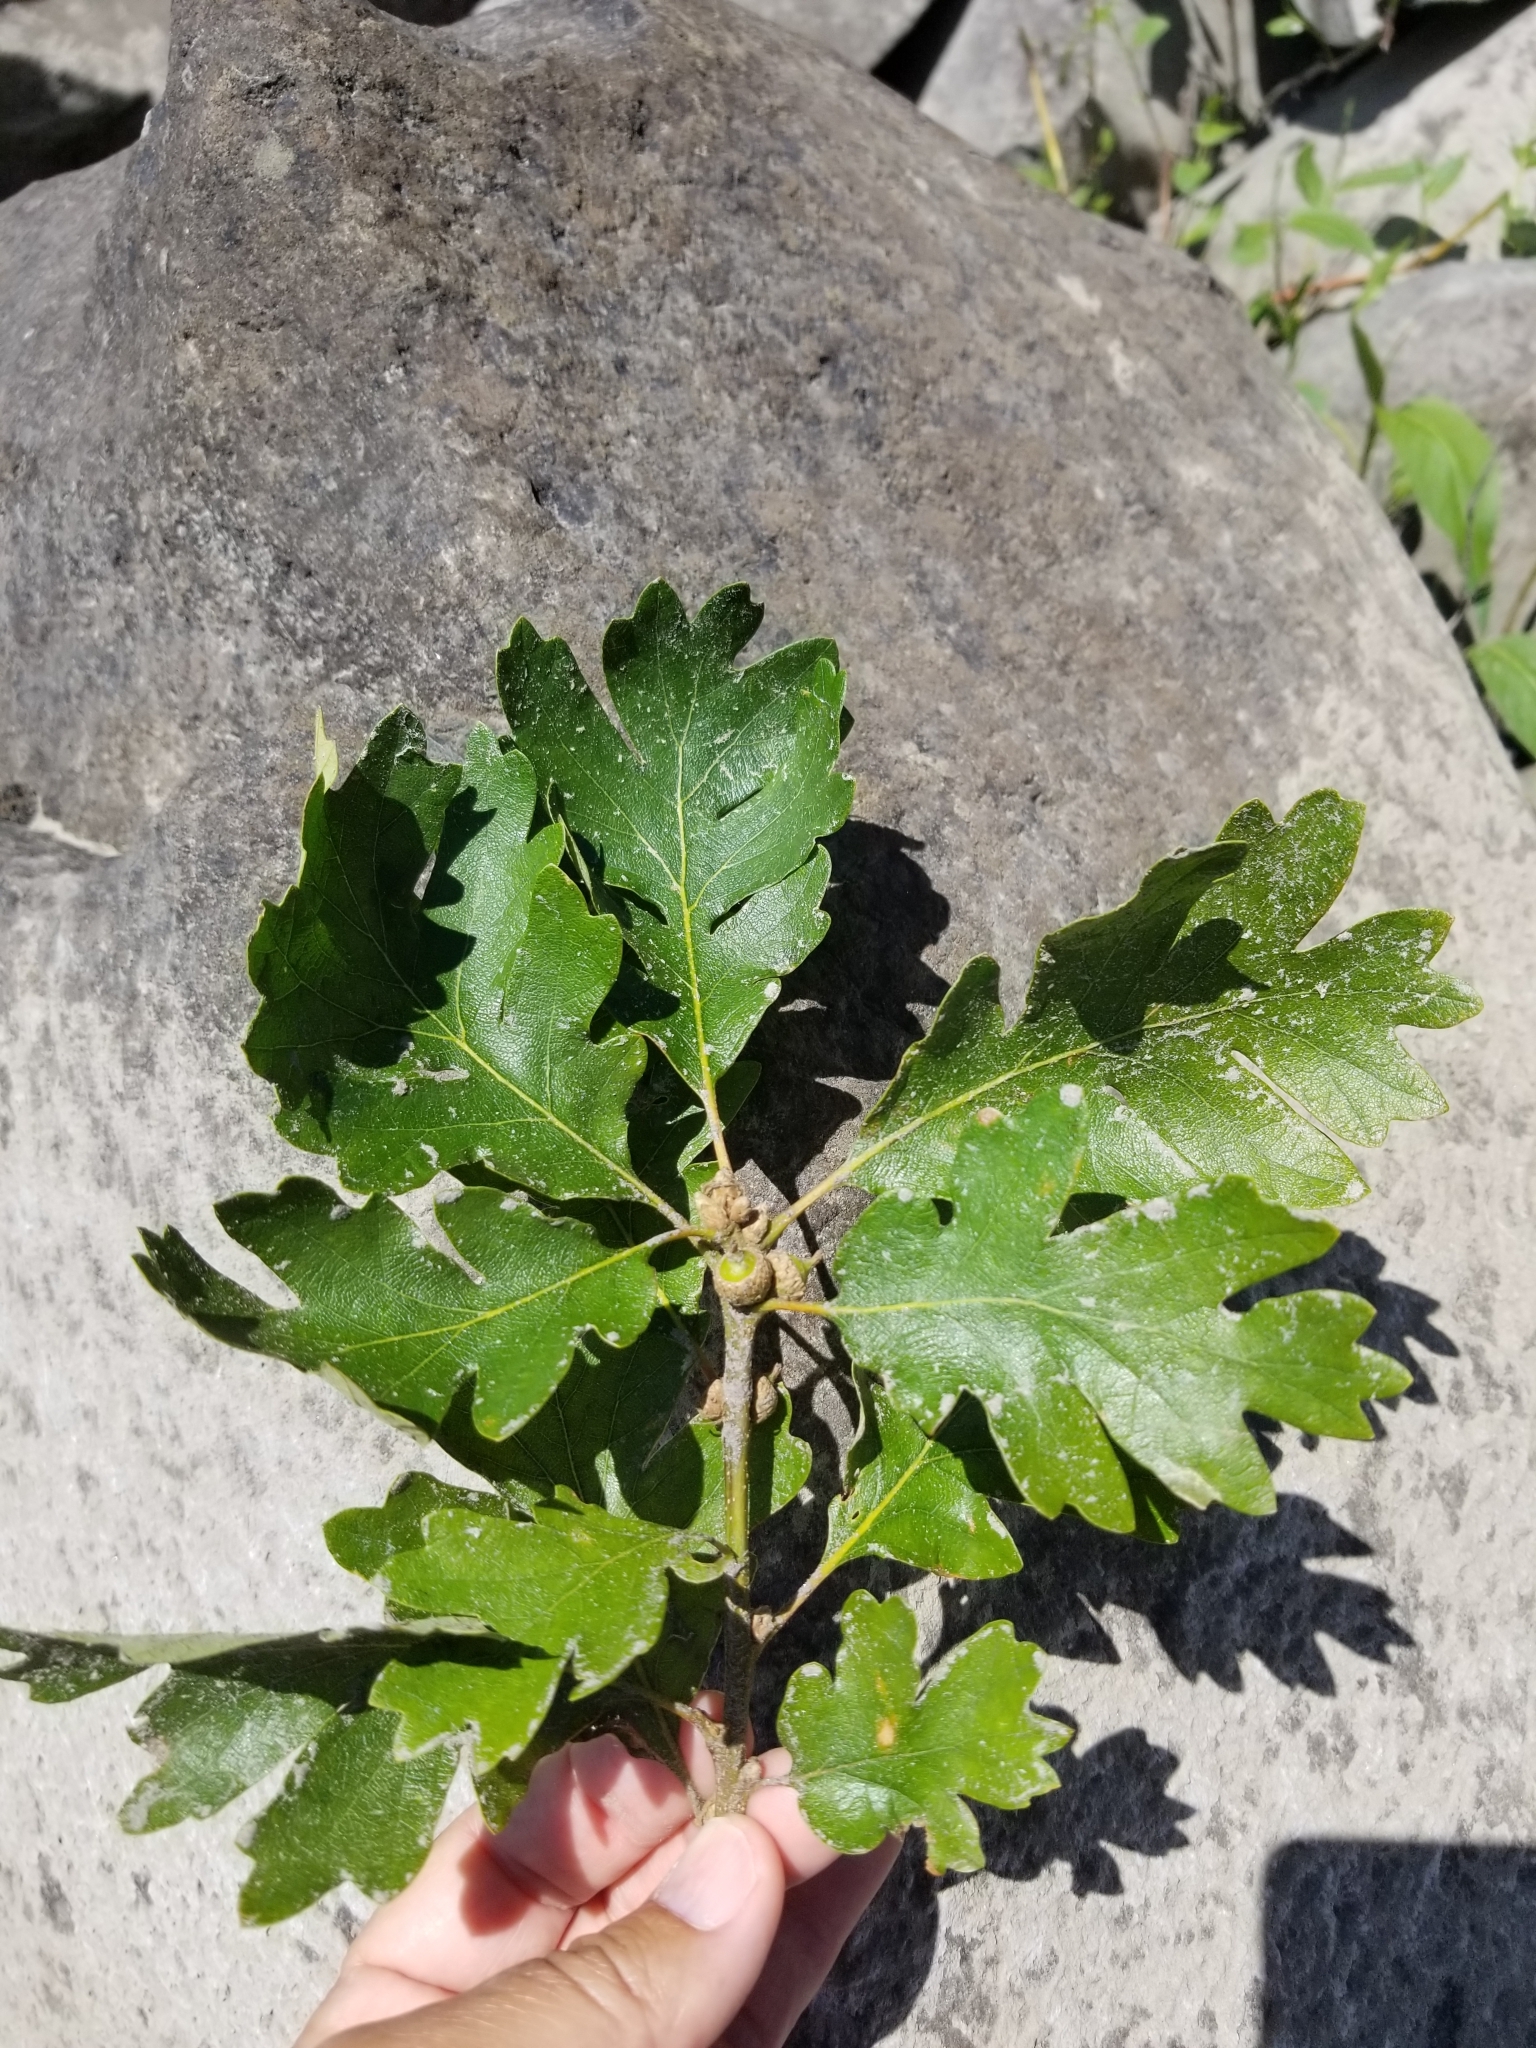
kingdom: Plantae
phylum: Tracheophyta
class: Magnoliopsida
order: Fagales
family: Fagaceae
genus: Quercus
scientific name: Quercus garryana
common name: Garry oak
